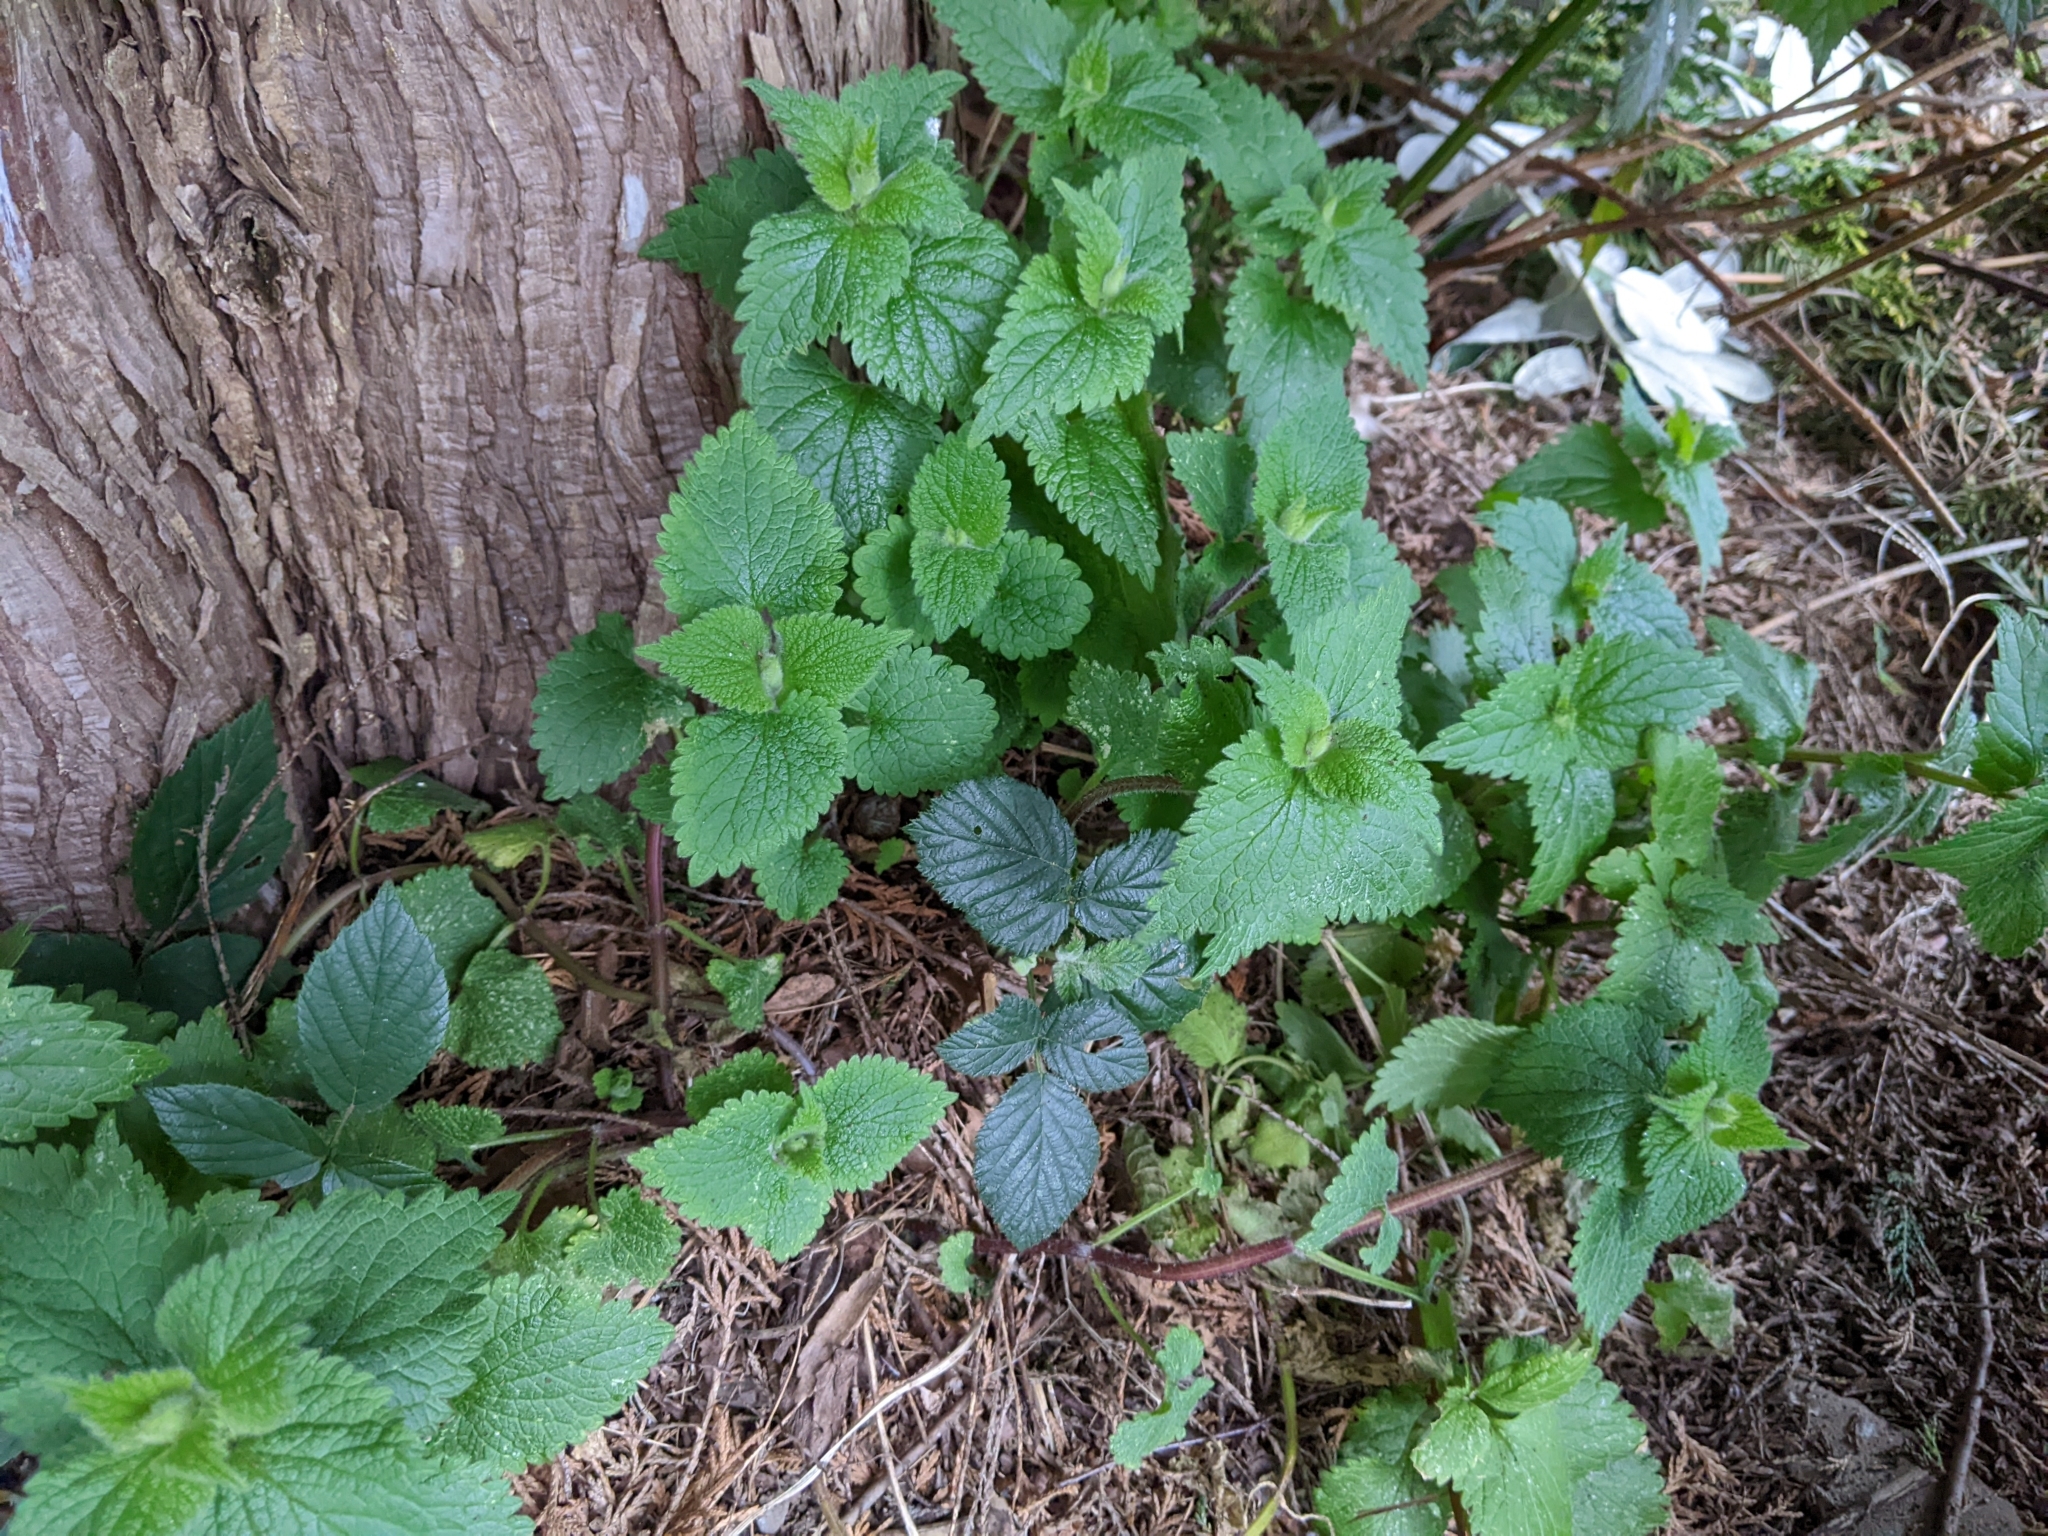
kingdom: Plantae
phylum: Tracheophyta
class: Magnoliopsida
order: Lamiales
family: Lamiaceae
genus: Lamium
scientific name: Lamium album
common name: White dead-nettle
